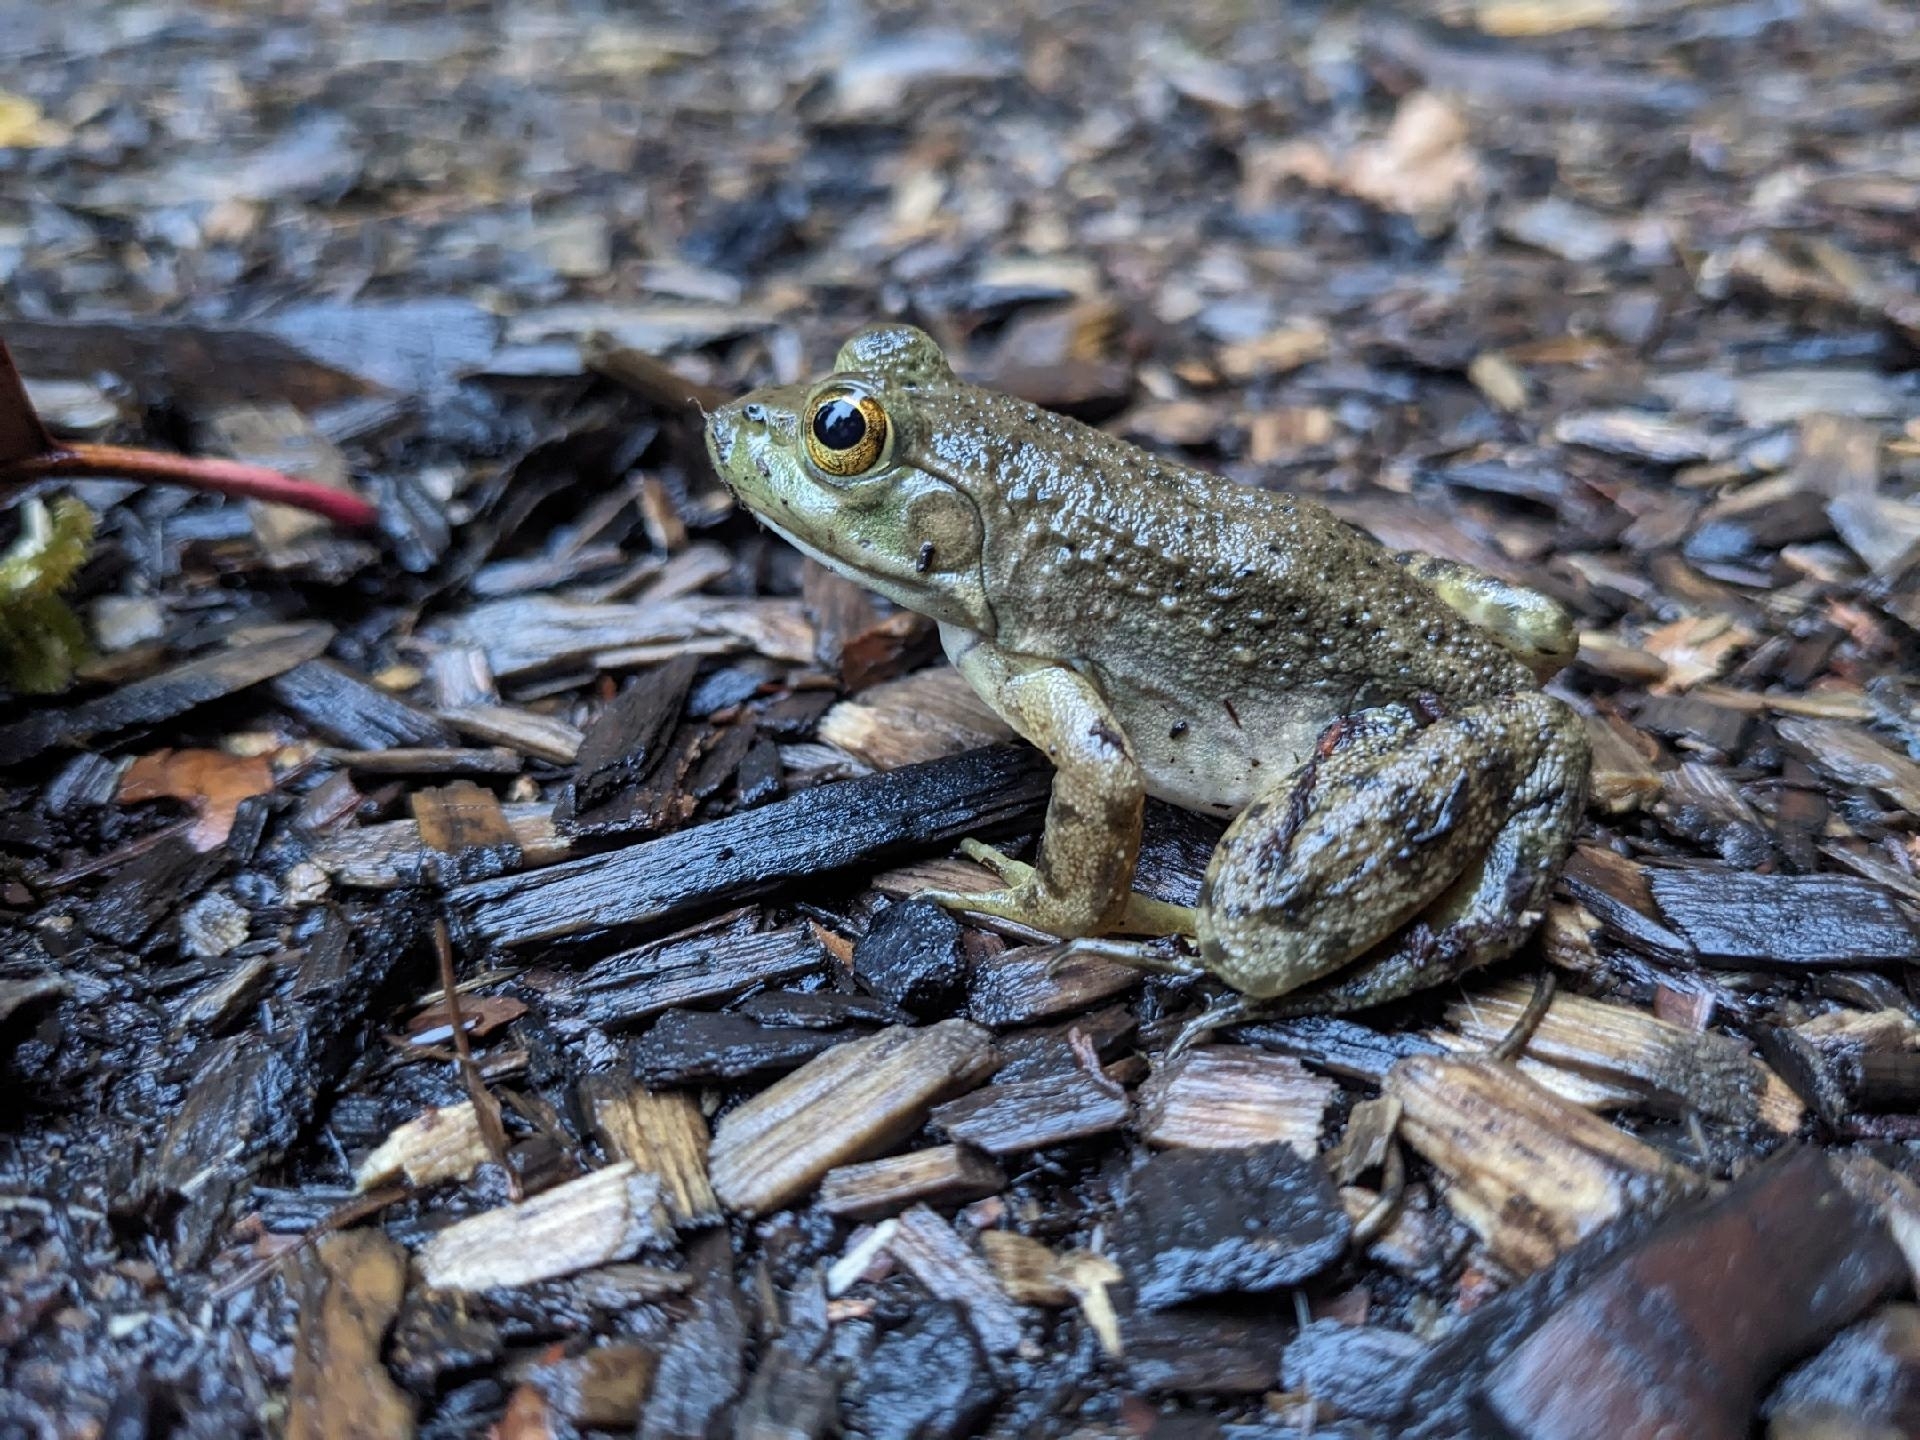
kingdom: Animalia
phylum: Chordata
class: Amphibia
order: Anura
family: Ranidae
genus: Lithobates
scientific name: Lithobates catesbeianus
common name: American bullfrog
